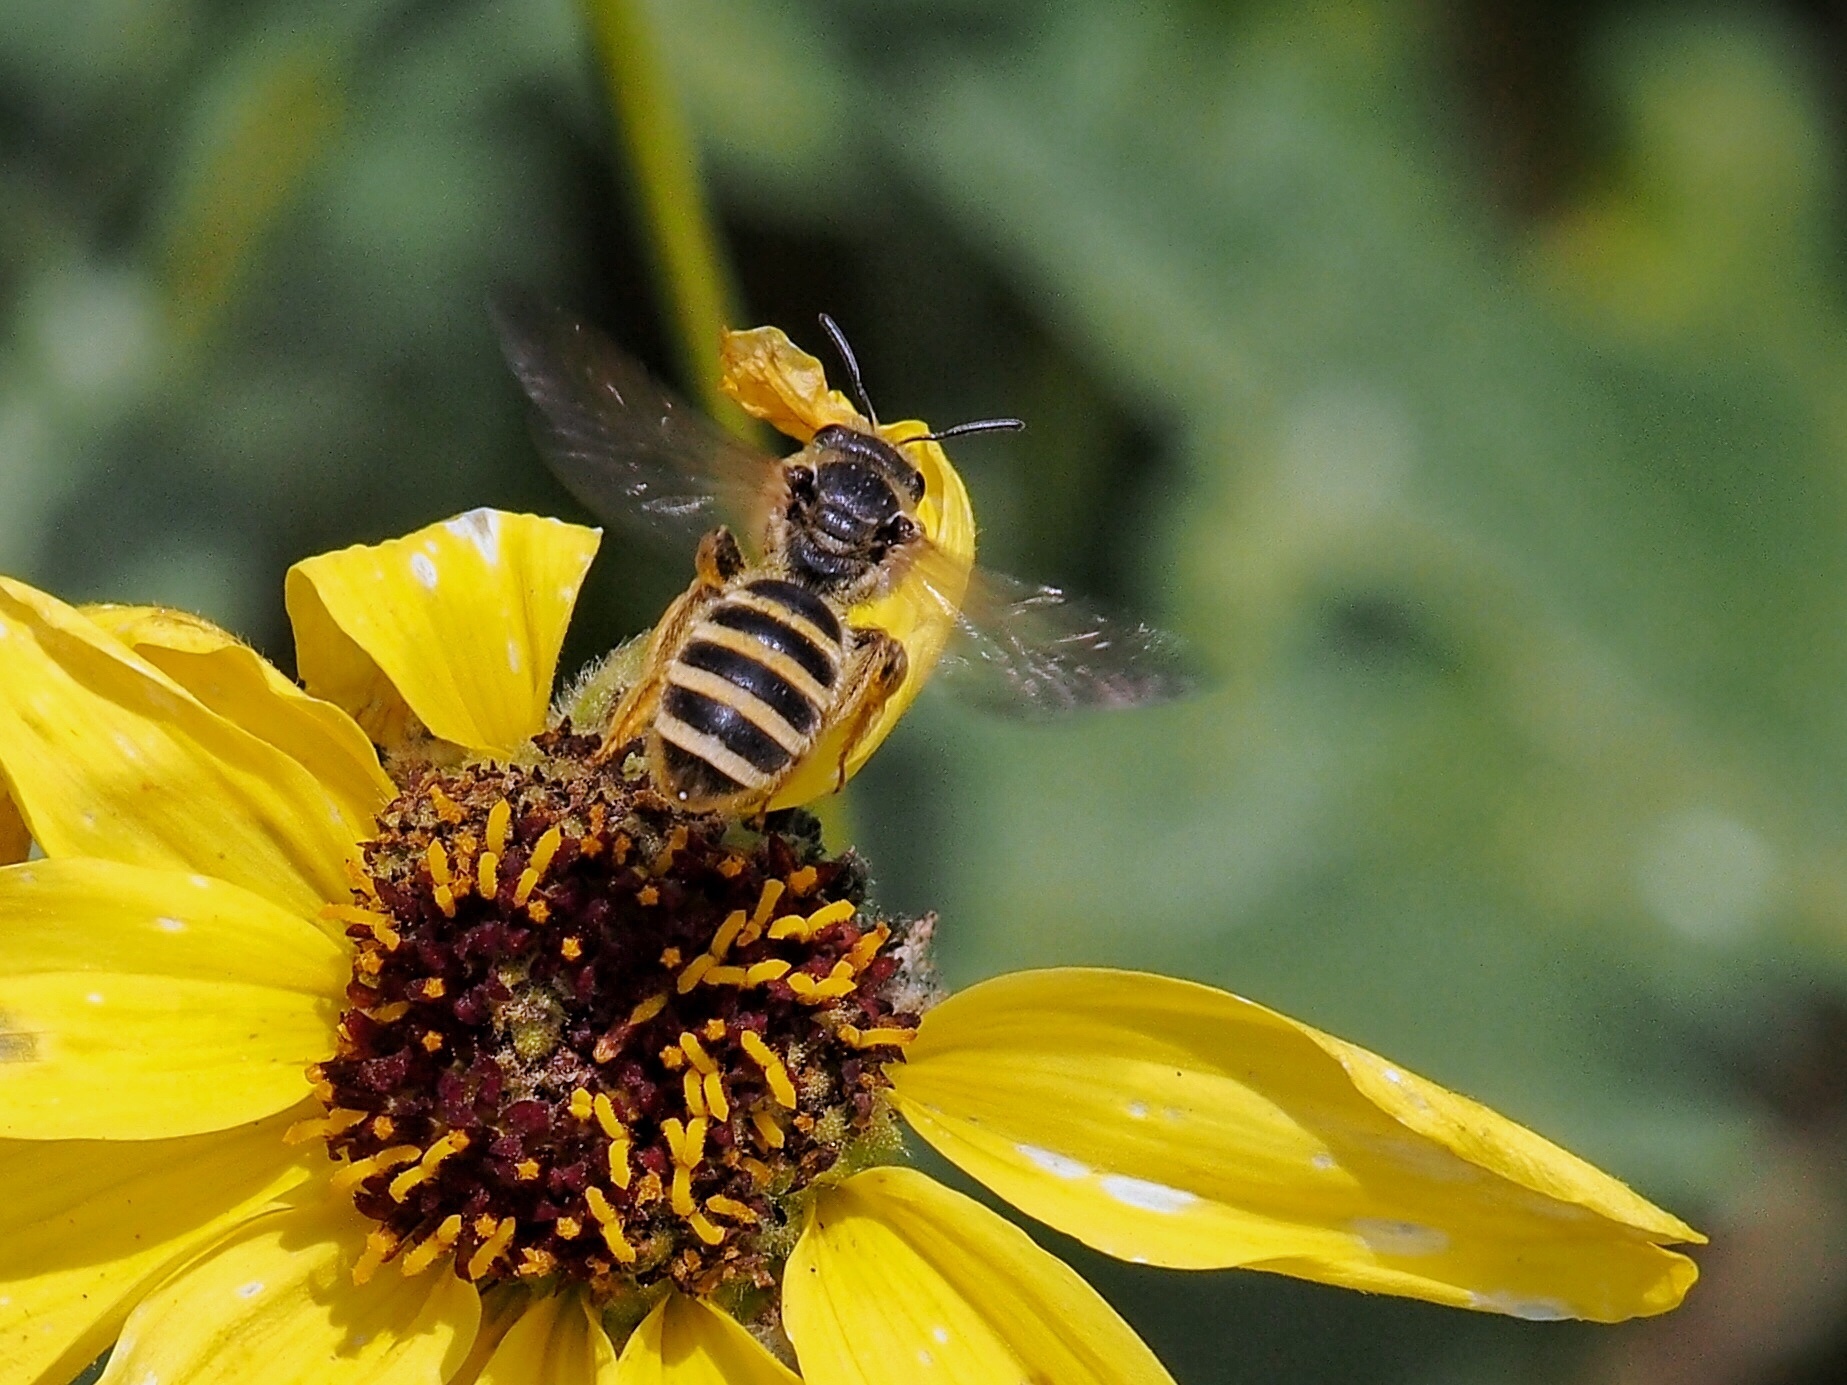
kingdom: Animalia
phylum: Arthropoda
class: Insecta
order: Hymenoptera
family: Halictidae
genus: Halictus
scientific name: Halictus farinosus
